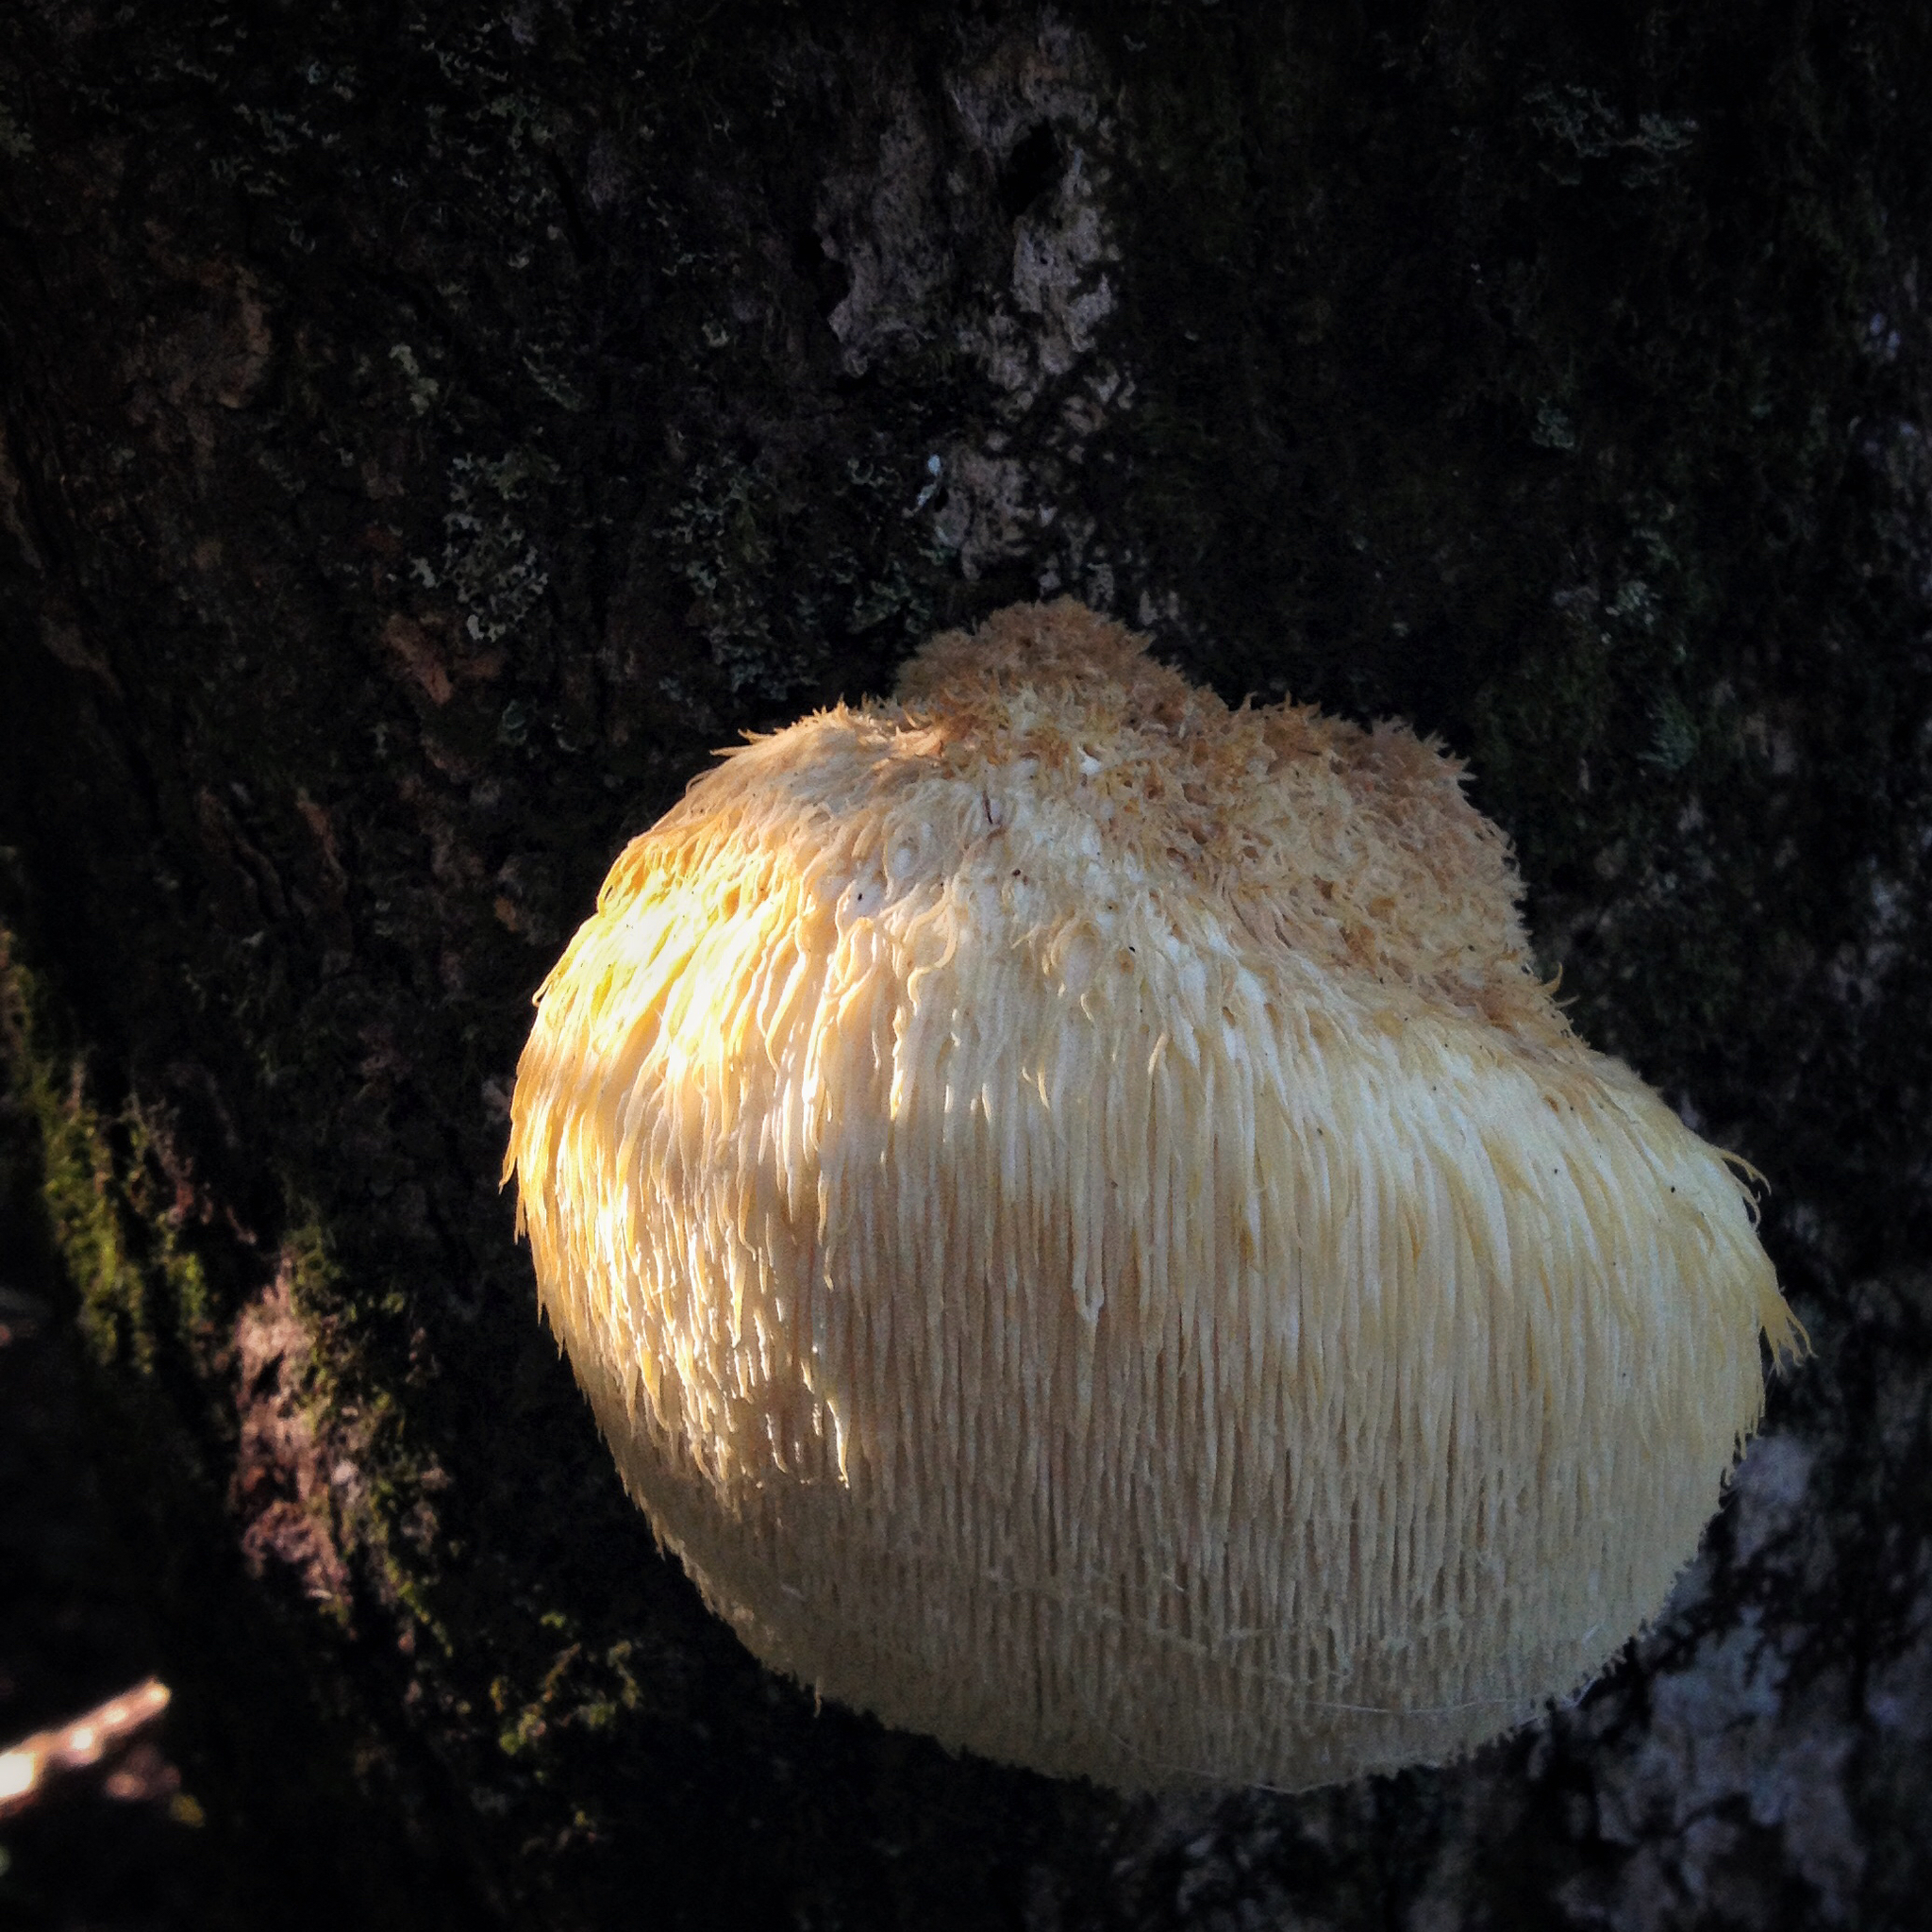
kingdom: Fungi
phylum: Basidiomycota
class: Agaricomycetes
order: Russulales
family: Hericiaceae
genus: Hericium
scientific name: Hericium erinaceus
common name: Bearded tooth
